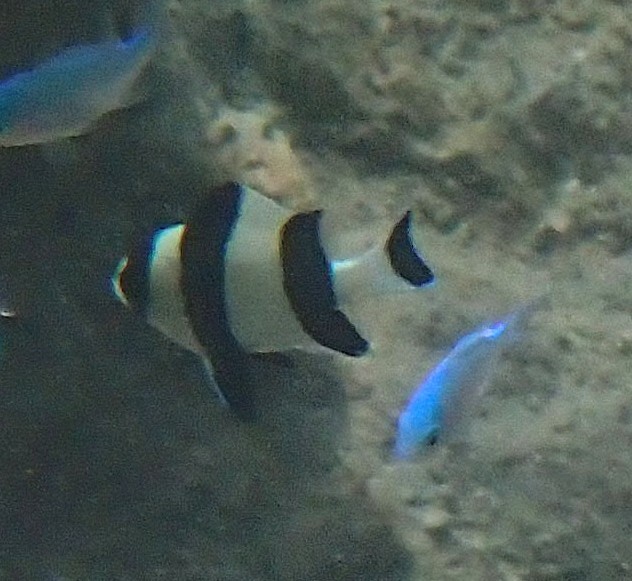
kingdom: Animalia
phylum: Chordata
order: Perciformes
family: Pomacentridae
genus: Dascyllus
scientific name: Dascyllus melanurus
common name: Black-tail dascyllus
